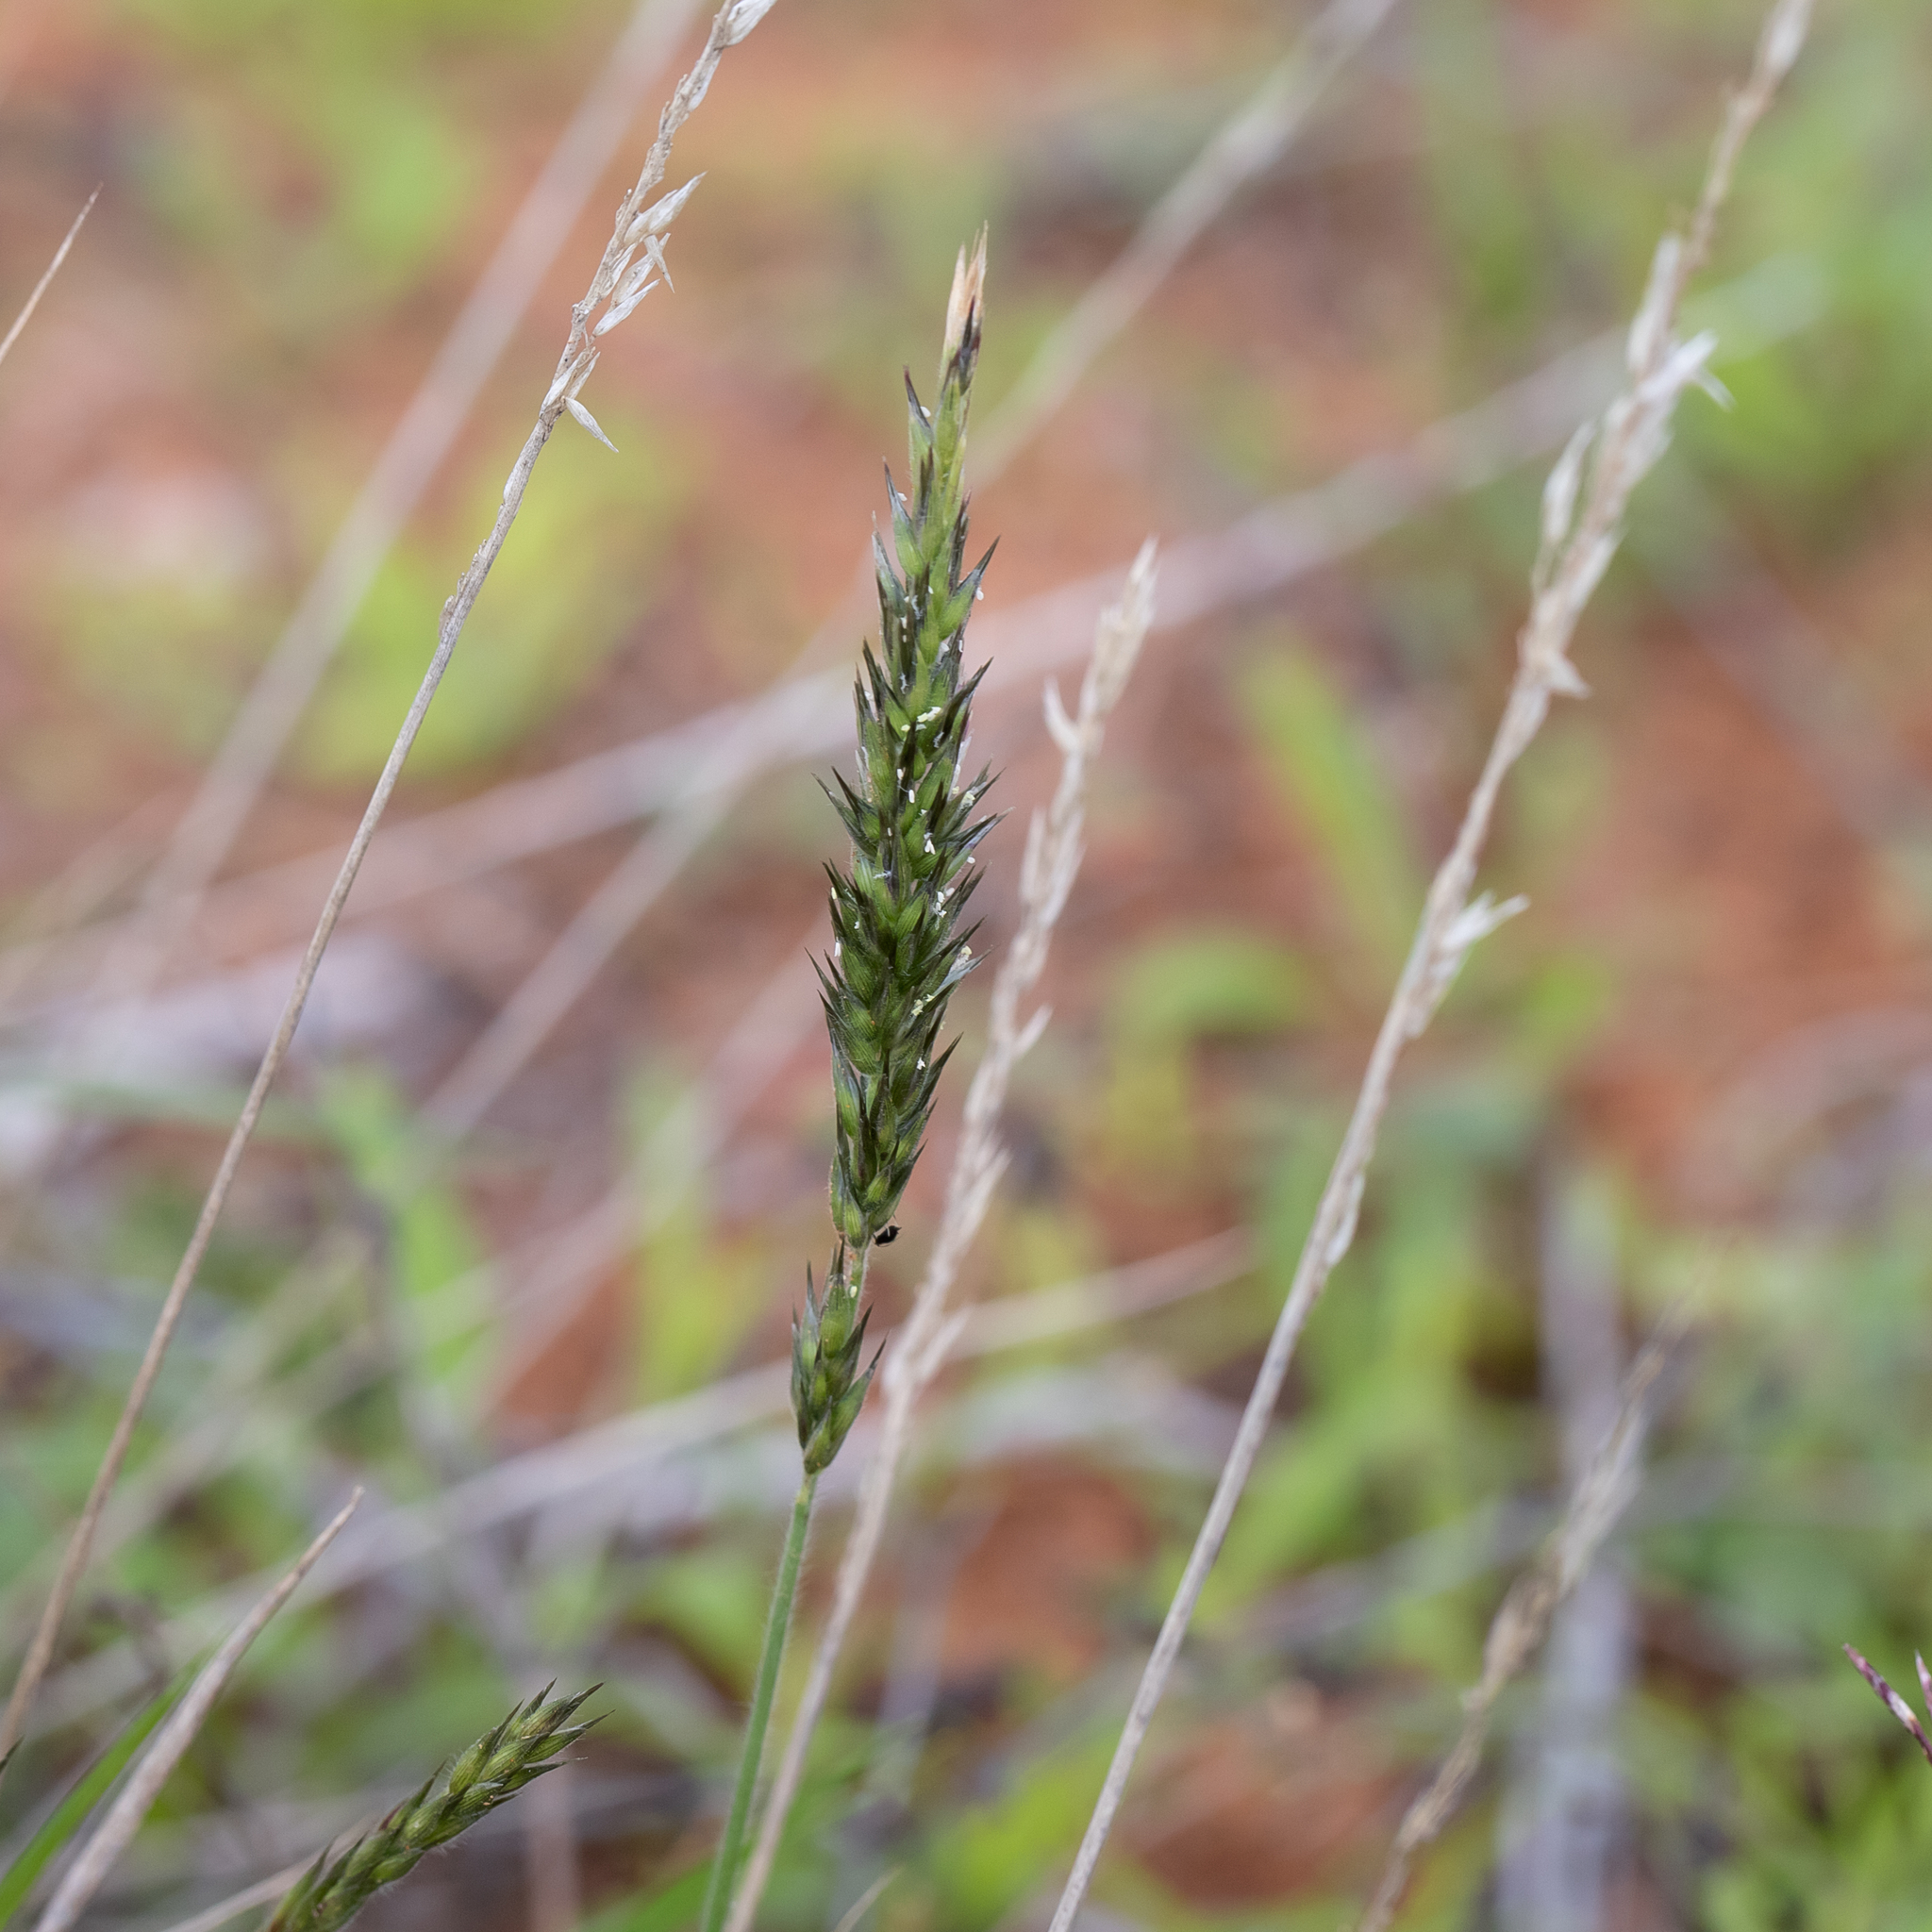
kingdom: Plantae
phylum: Tracheophyta
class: Liliopsida
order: Poales
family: Poaceae
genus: Enneapogon
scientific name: Enneapogon polyphyllus
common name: Leafy nineawn
